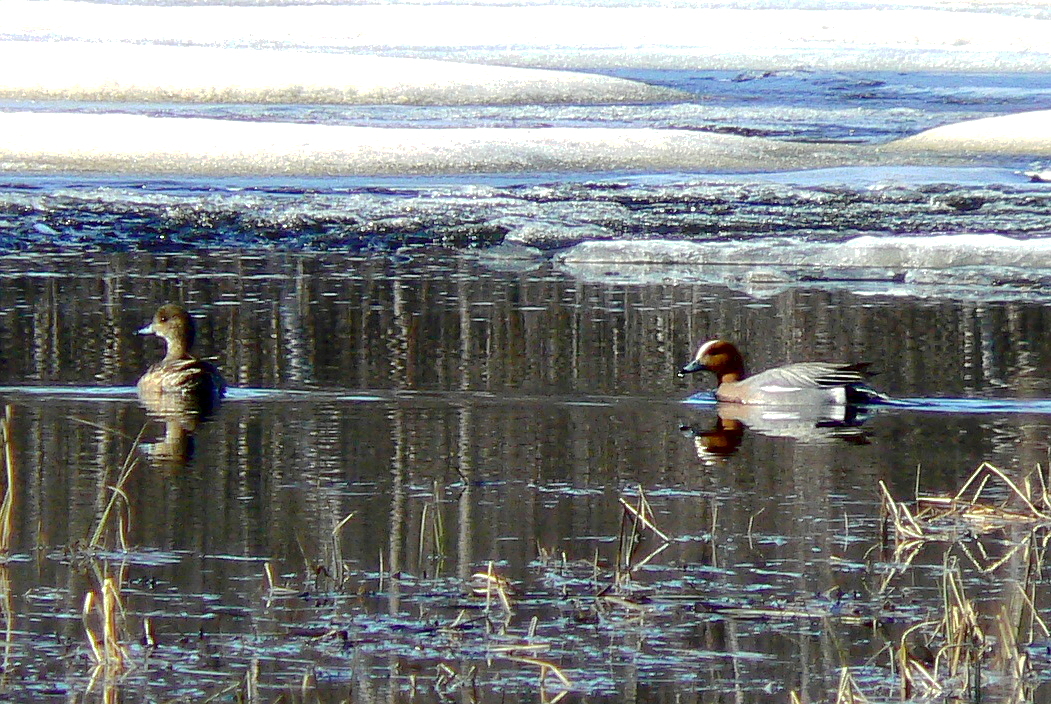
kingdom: Animalia
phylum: Chordata
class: Aves
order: Anseriformes
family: Anatidae
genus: Mareca
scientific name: Mareca penelope
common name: Eurasian wigeon
